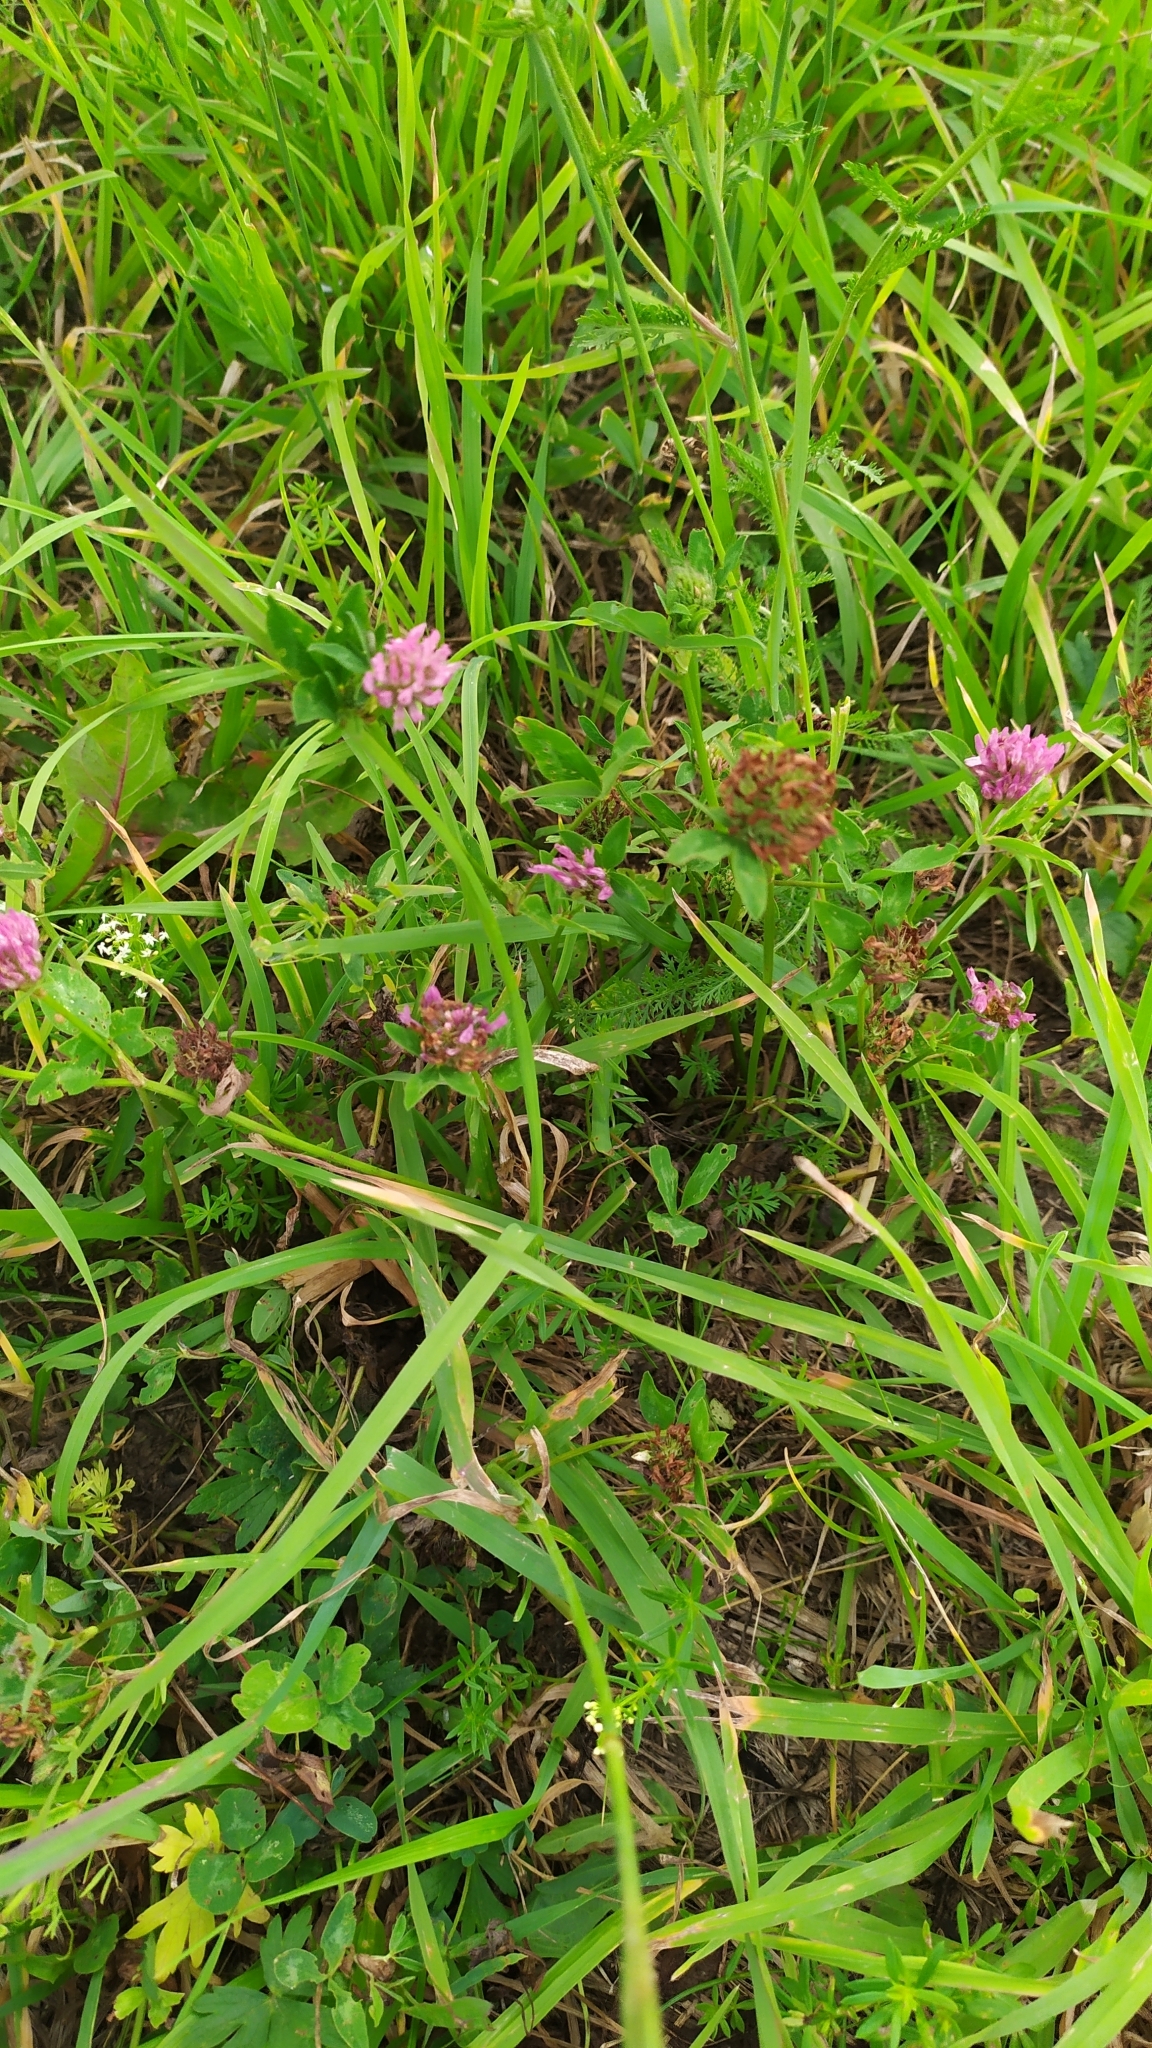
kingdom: Plantae
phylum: Tracheophyta
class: Magnoliopsida
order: Fabales
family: Fabaceae
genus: Trifolium
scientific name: Trifolium pratense
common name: Red clover
